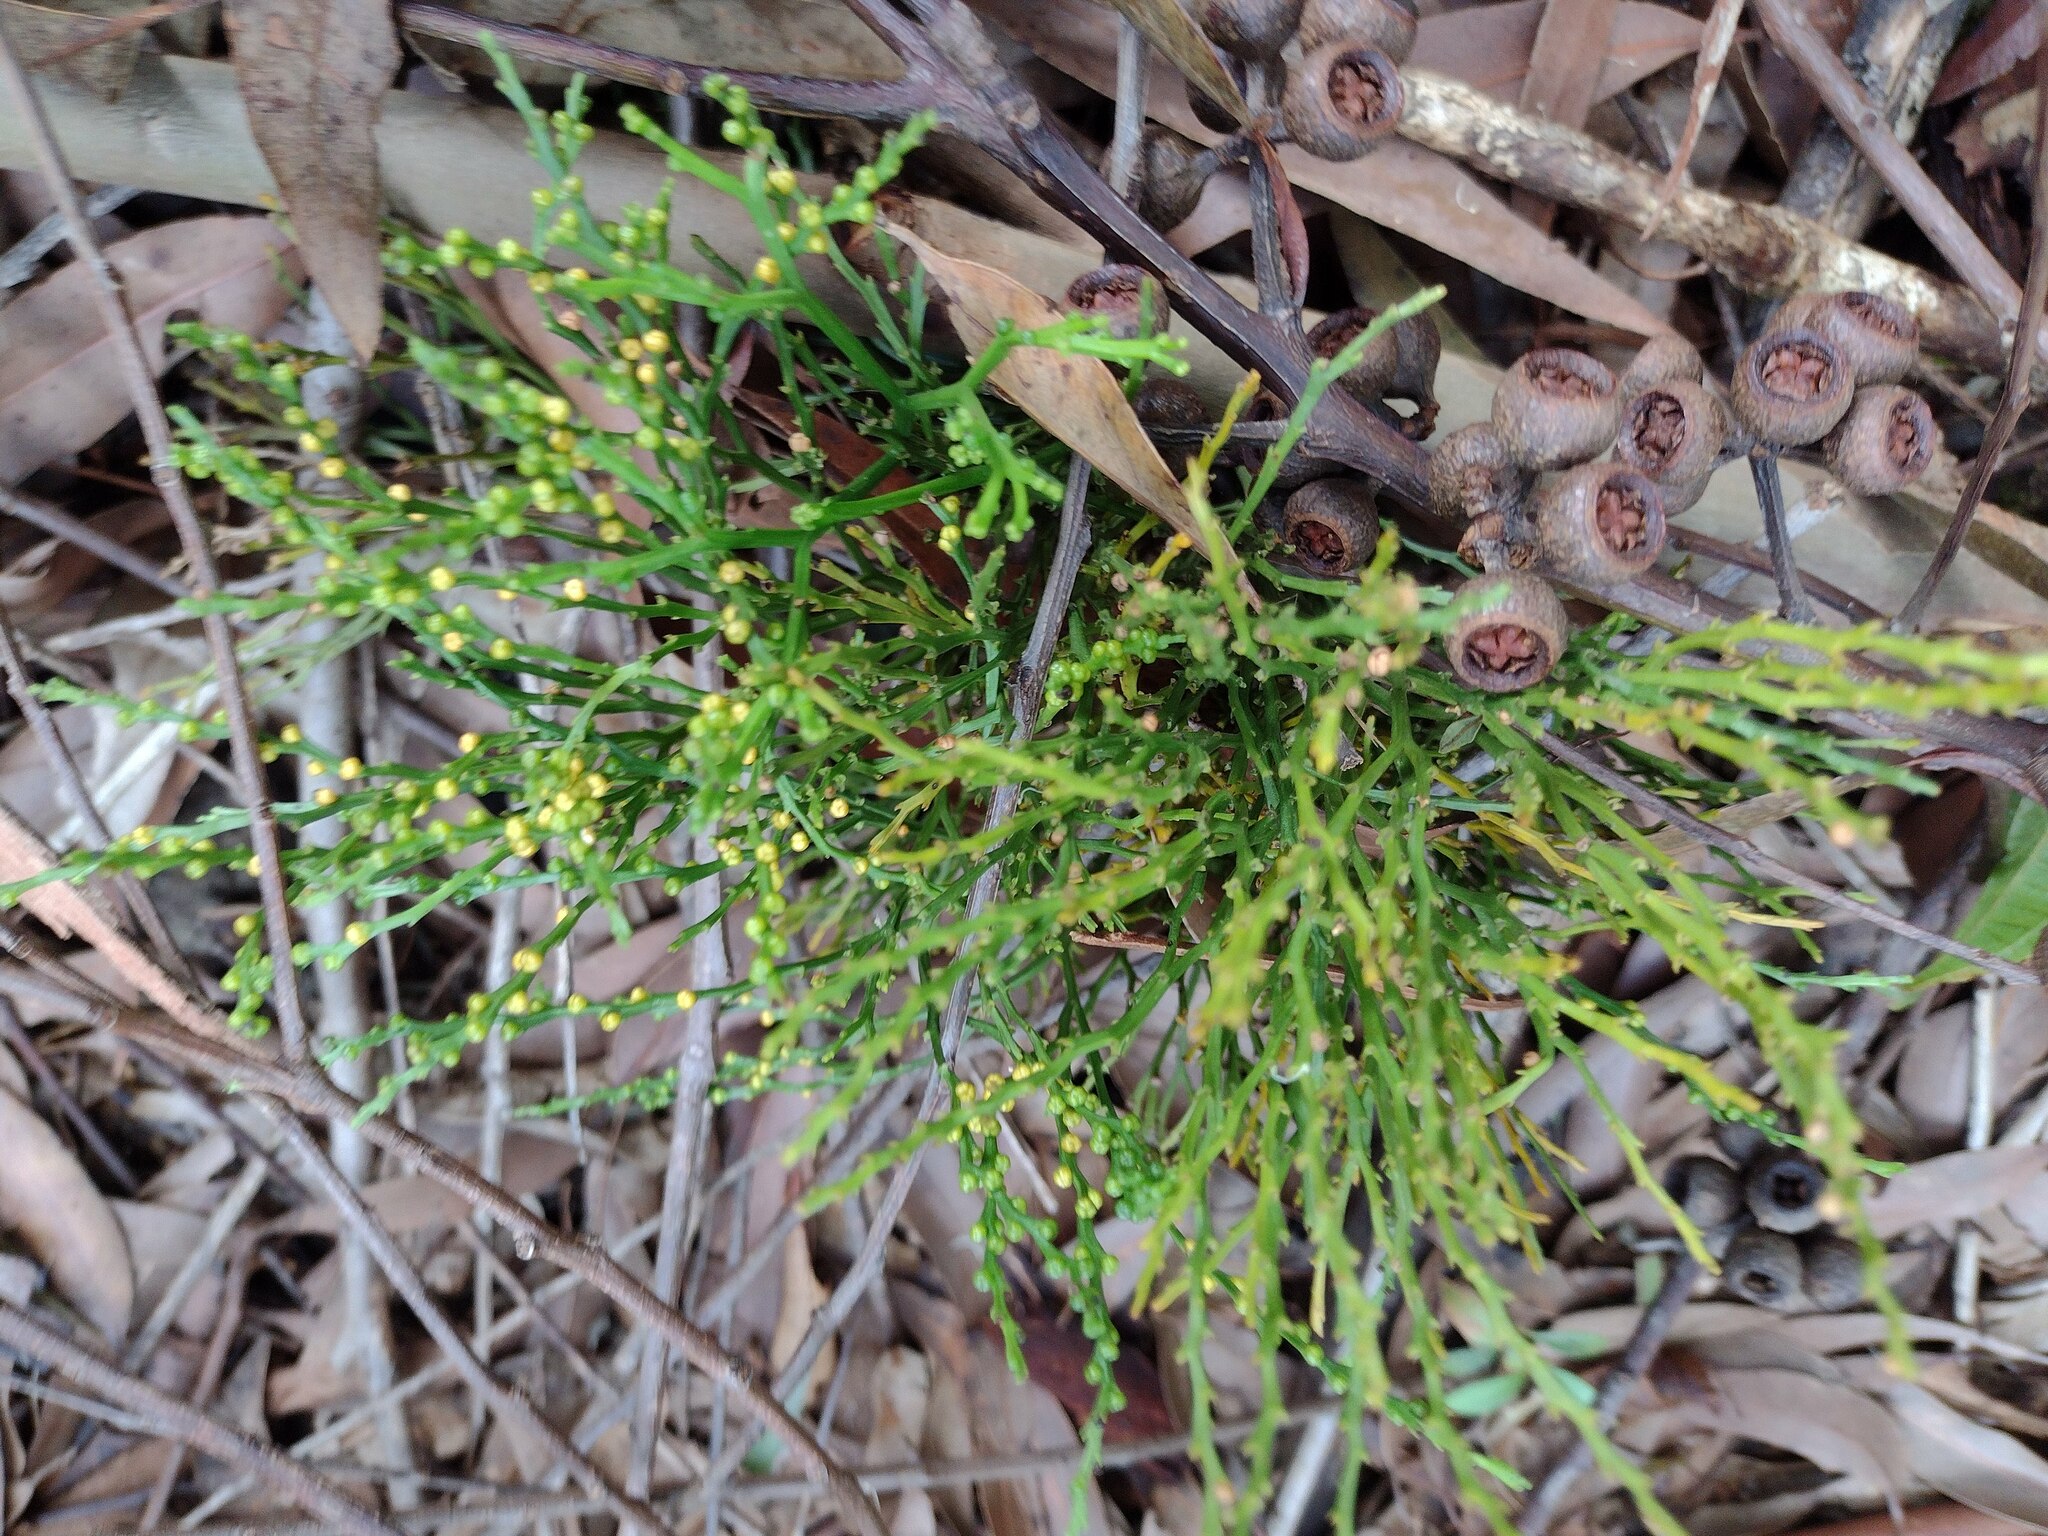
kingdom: Plantae
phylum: Tracheophyta
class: Polypodiopsida
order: Psilotales
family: Psilotaceae
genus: Psilotum
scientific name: Psilotum nudum
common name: Skeleton fork fern
